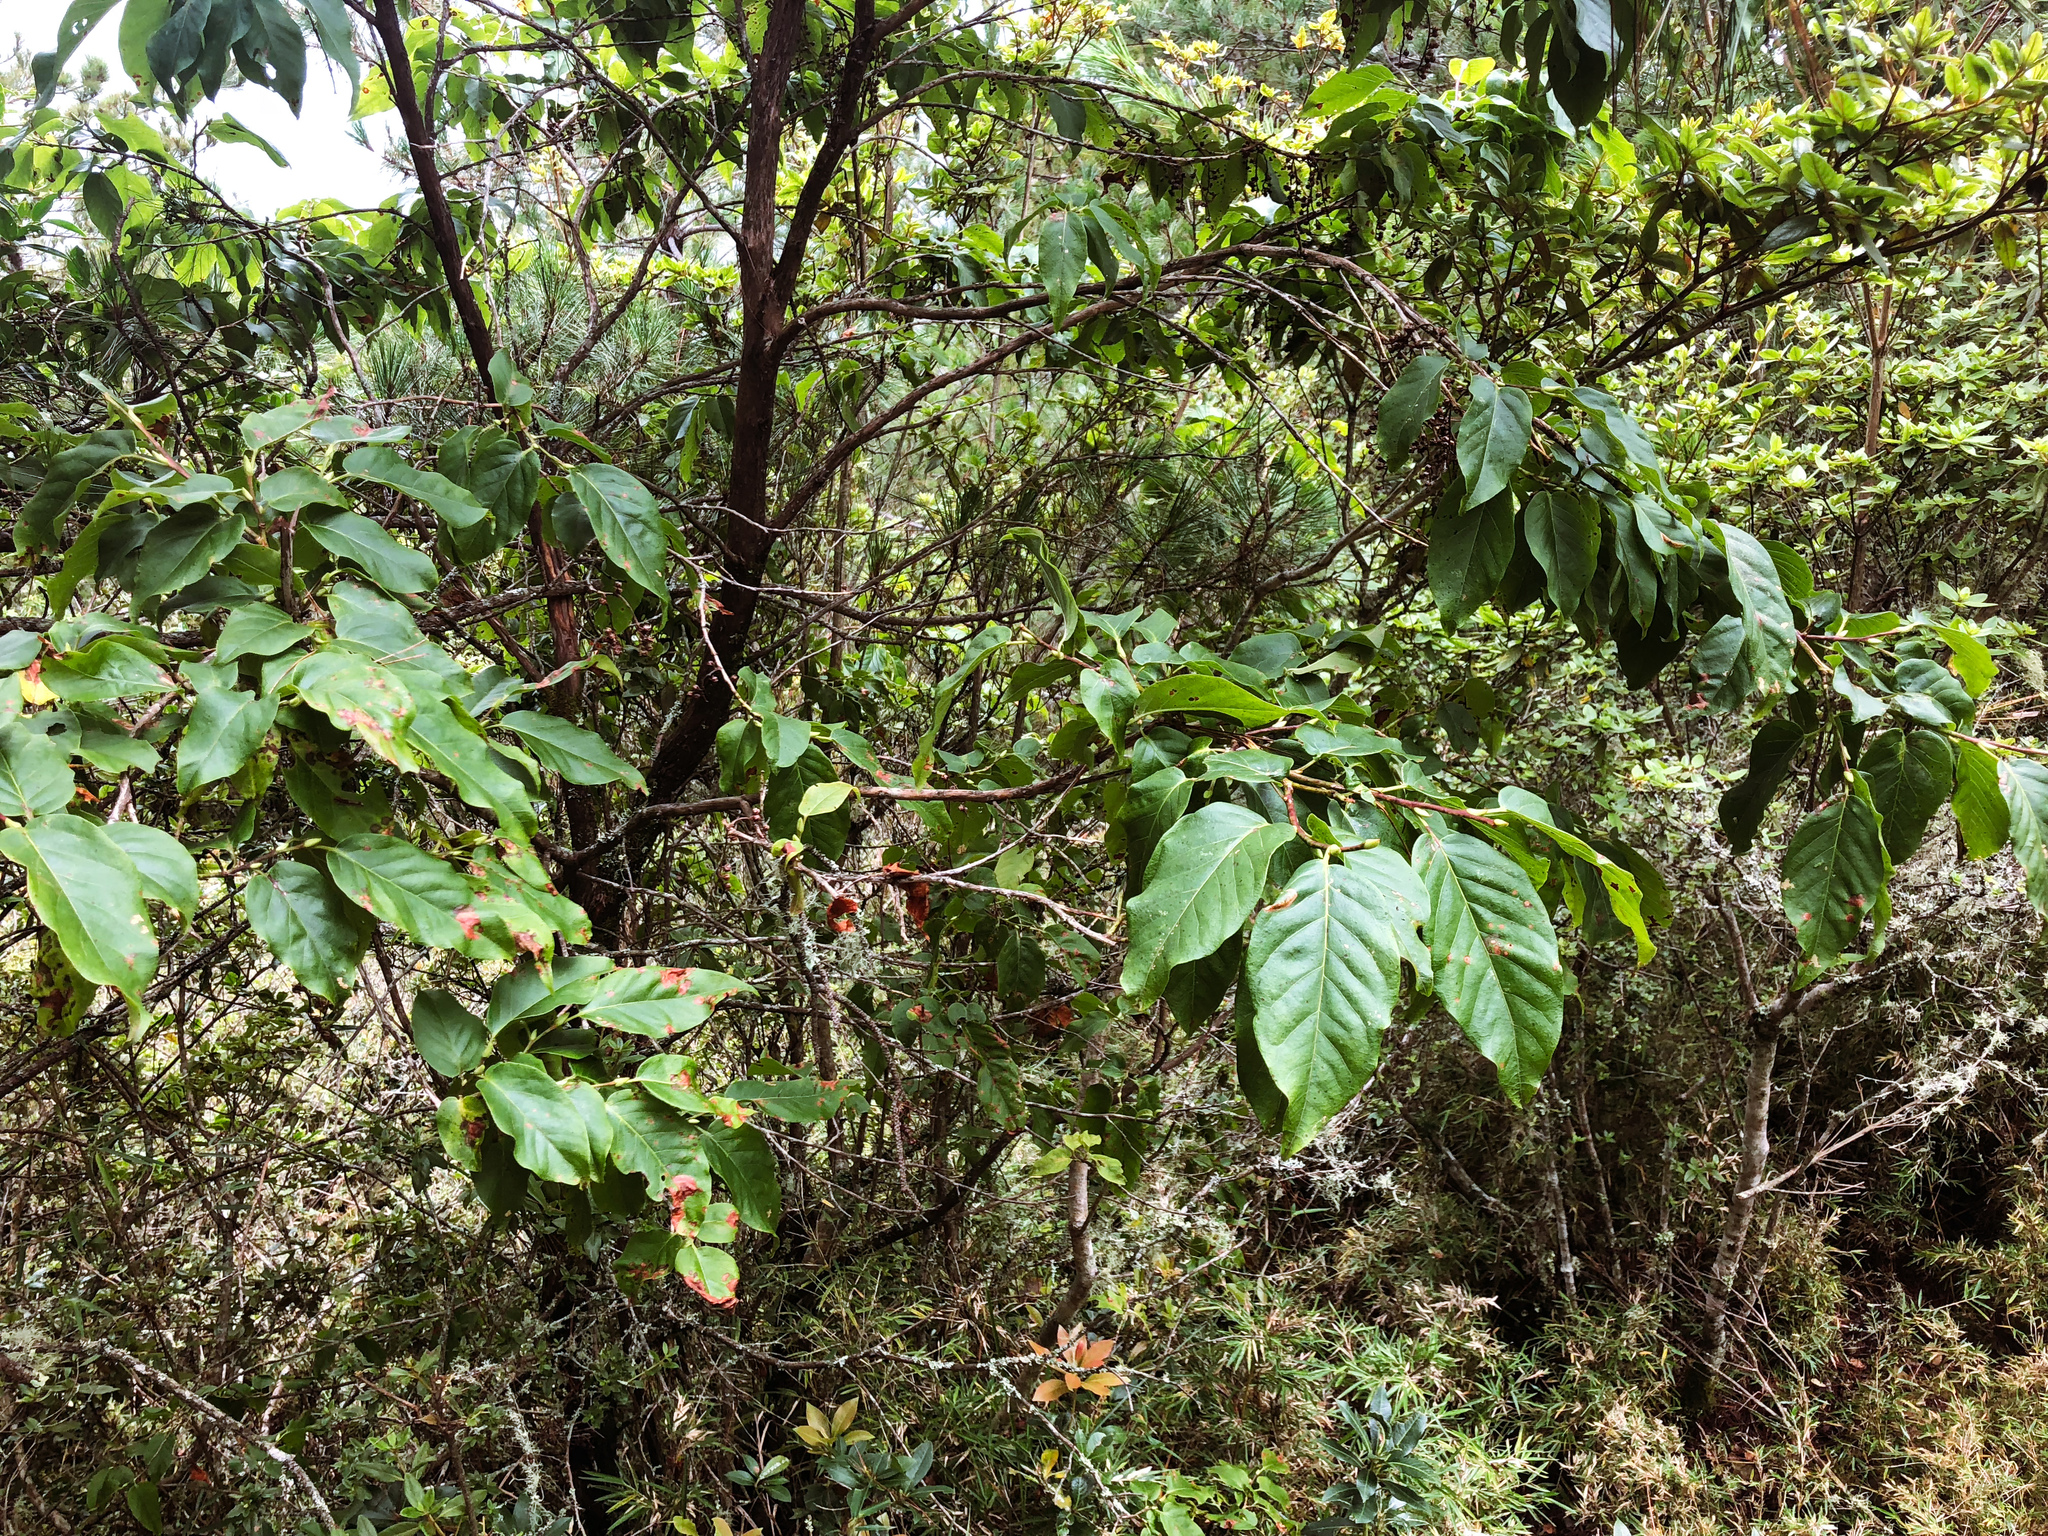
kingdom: Plantae
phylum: Tracheophyta
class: Magnoliopsida
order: Ericales
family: Ericaceae
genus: Lyonia
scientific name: Lyonia ovalifolia
